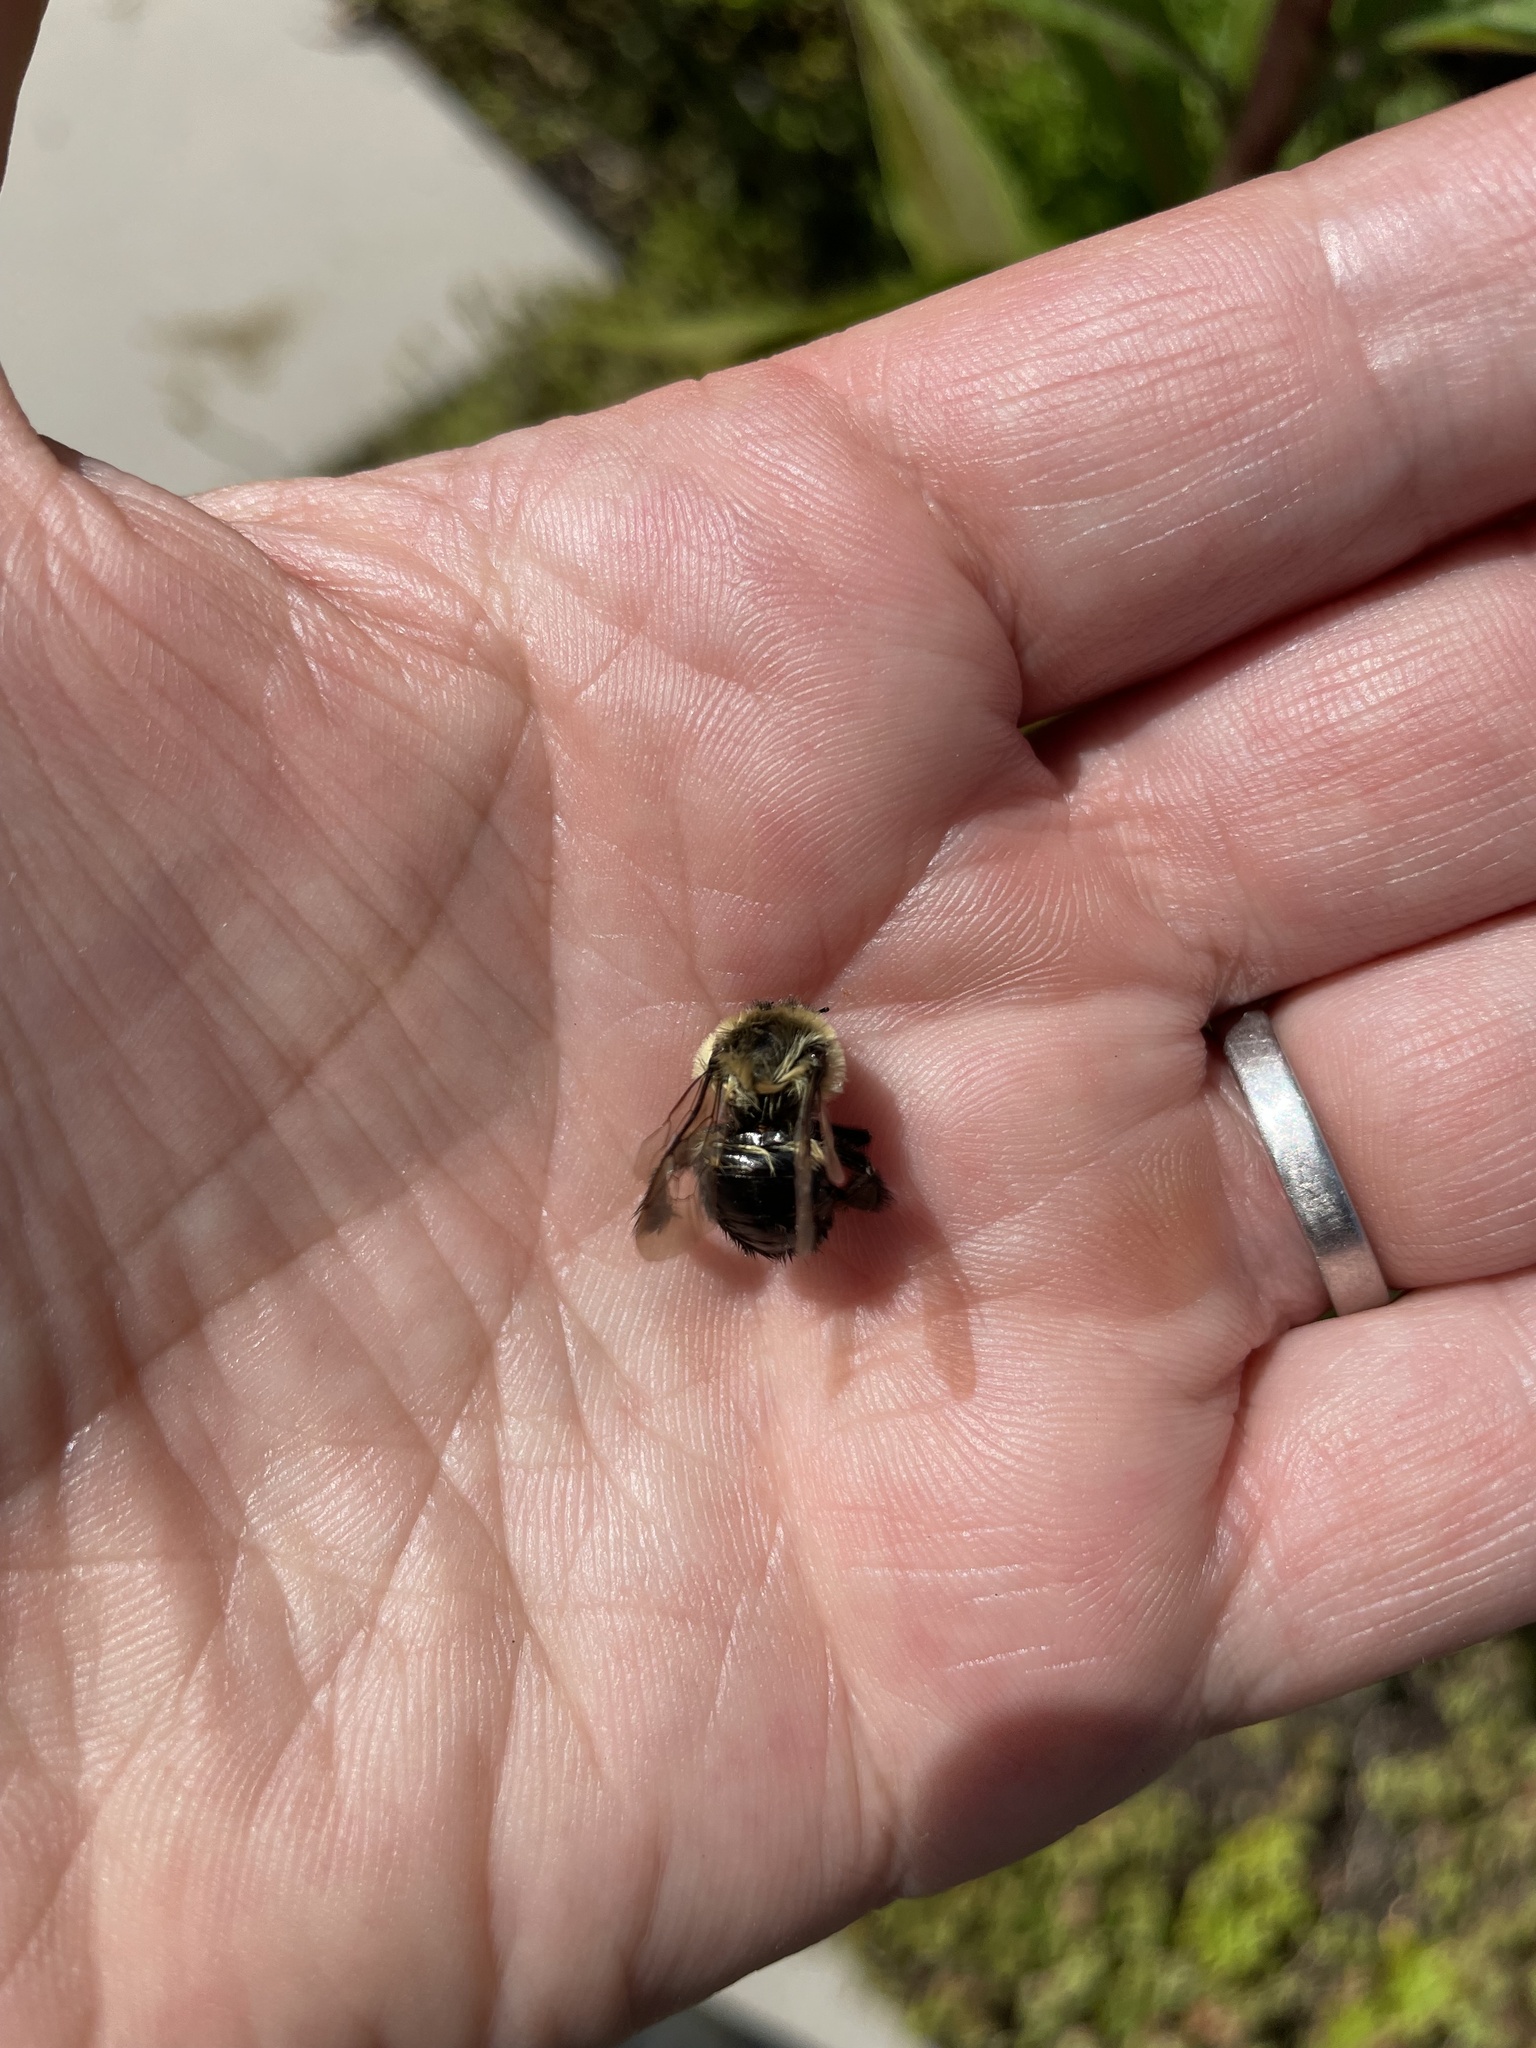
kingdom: Animalia
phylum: Arthropoda
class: Insecta
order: Hymenoptera
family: Apidae
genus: Bombus
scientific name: Bombus impatiens
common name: Common eastern bumble bee
